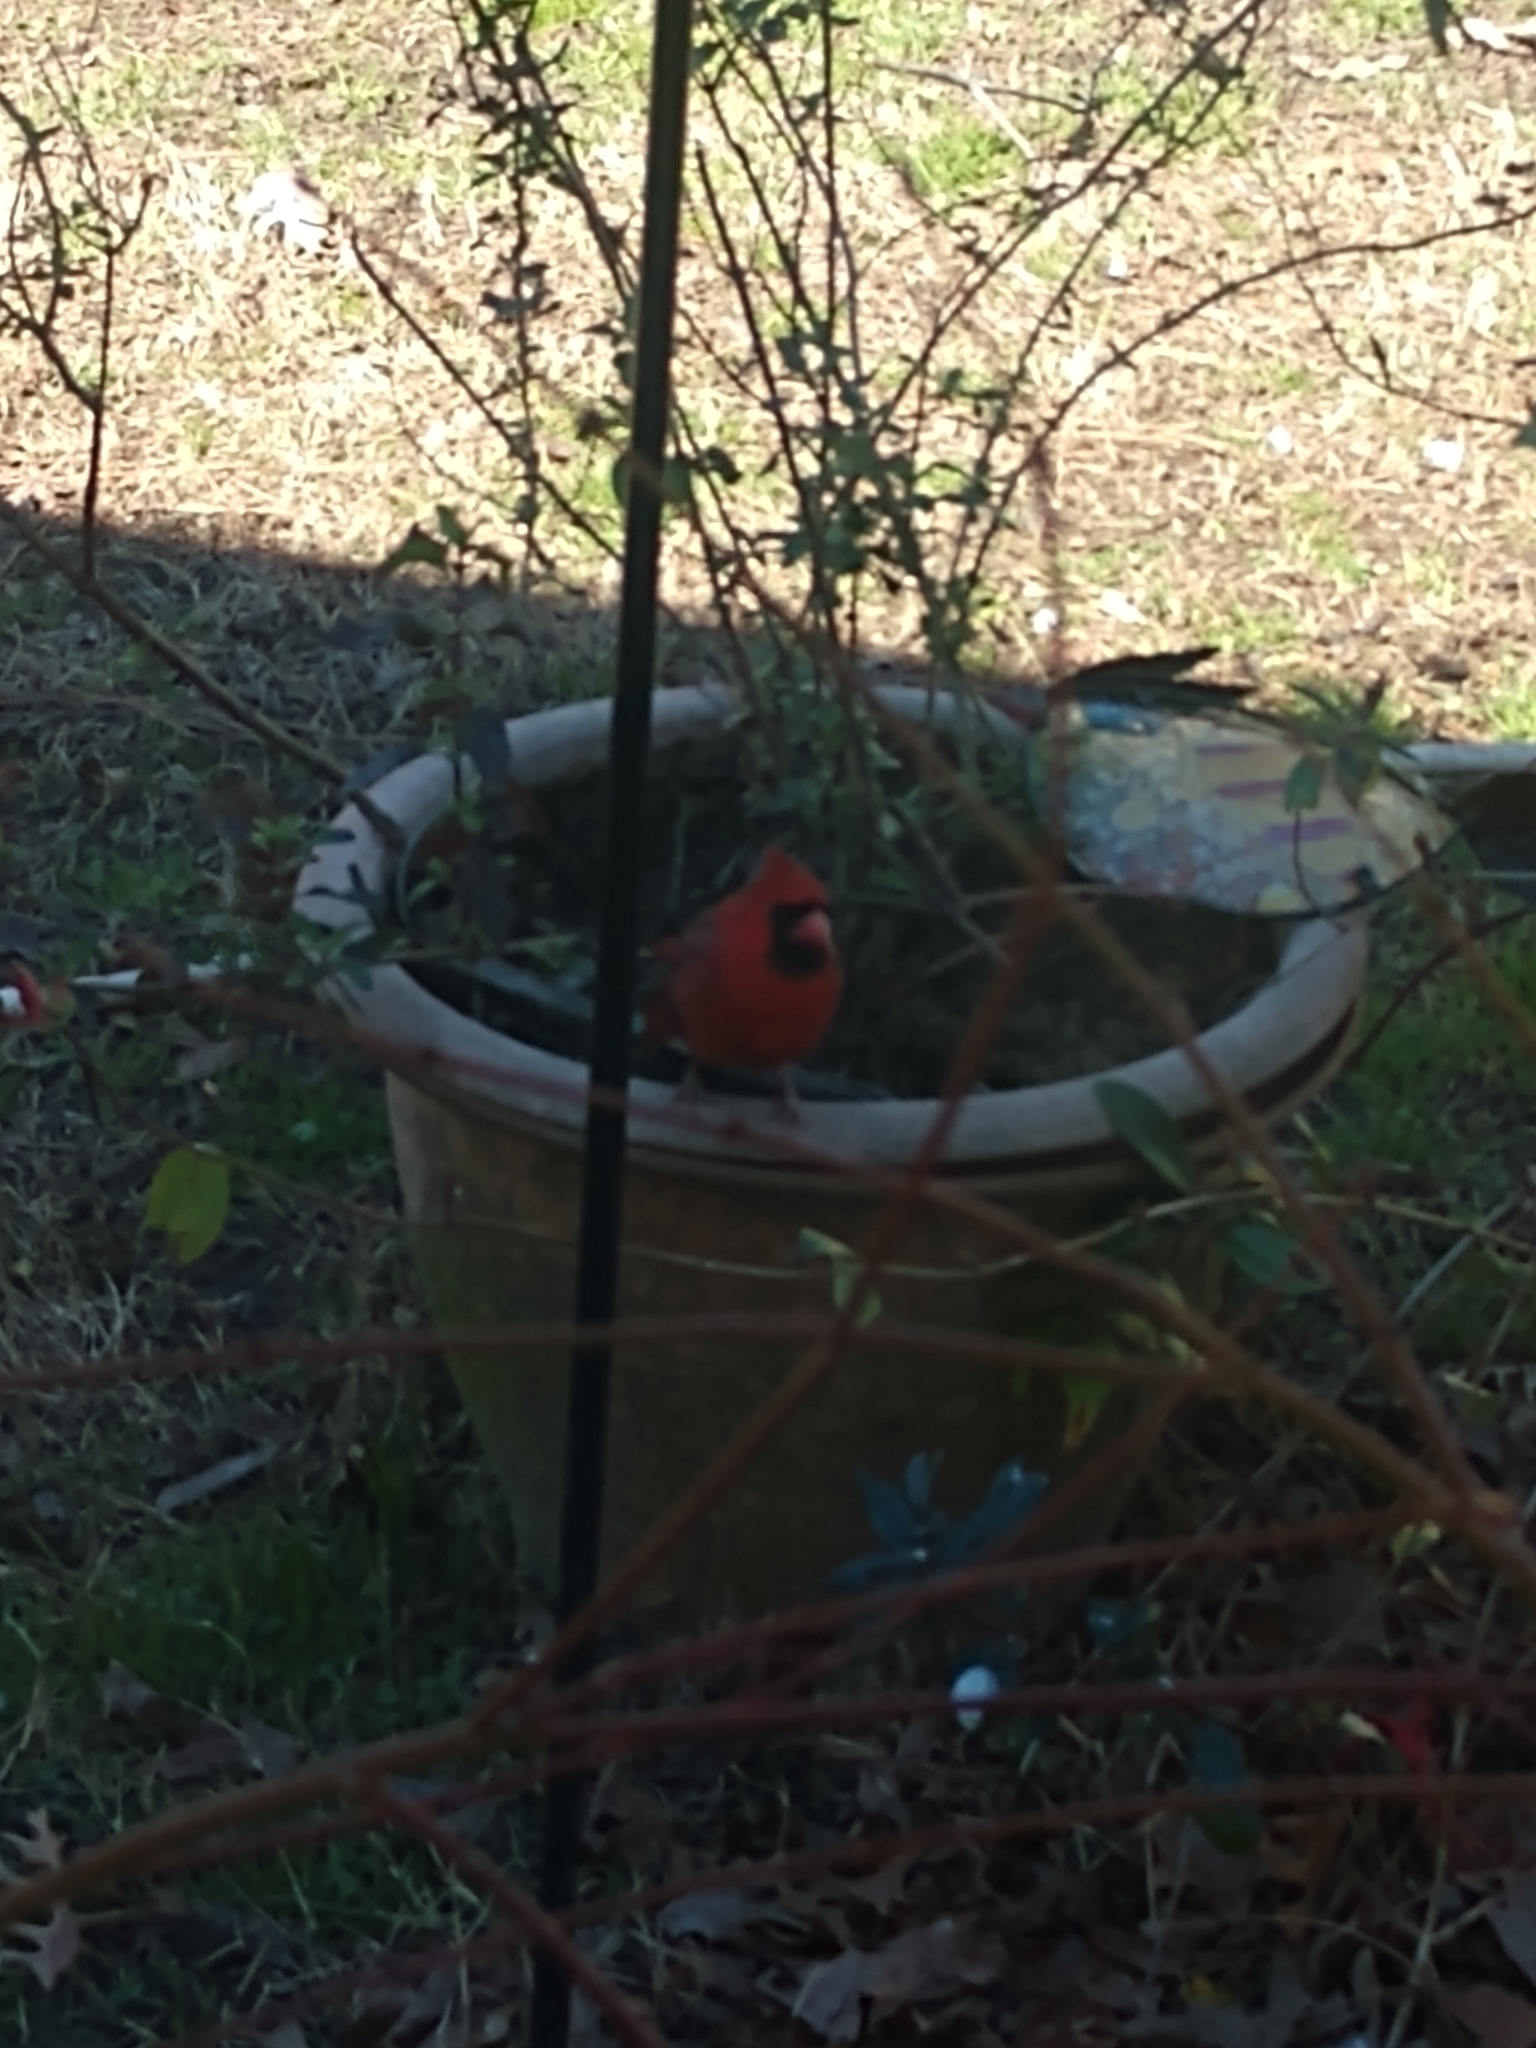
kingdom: Animalia
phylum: Chordata
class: Aves
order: Passeriformes
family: Cardinalidae
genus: Cardinalis
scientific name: Cardinalis cardinalis
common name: Northern cardinal
